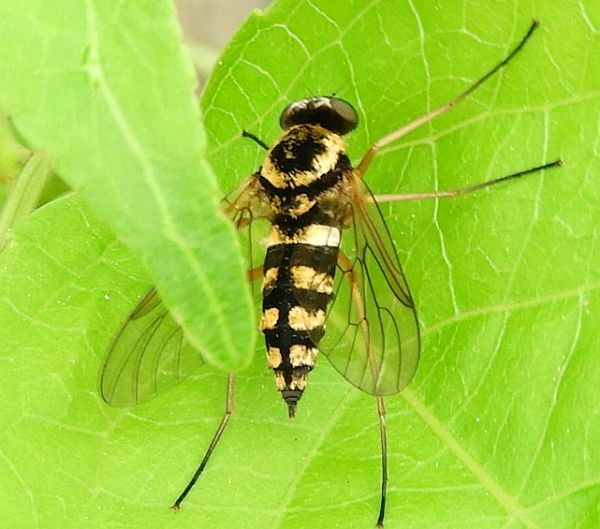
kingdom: Animalia
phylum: Arthropoda
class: Insecta
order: Diptera
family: Rhagionidae
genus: Chrysopilus
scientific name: Chrysopilus ornatus
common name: Ornate snipe fly
